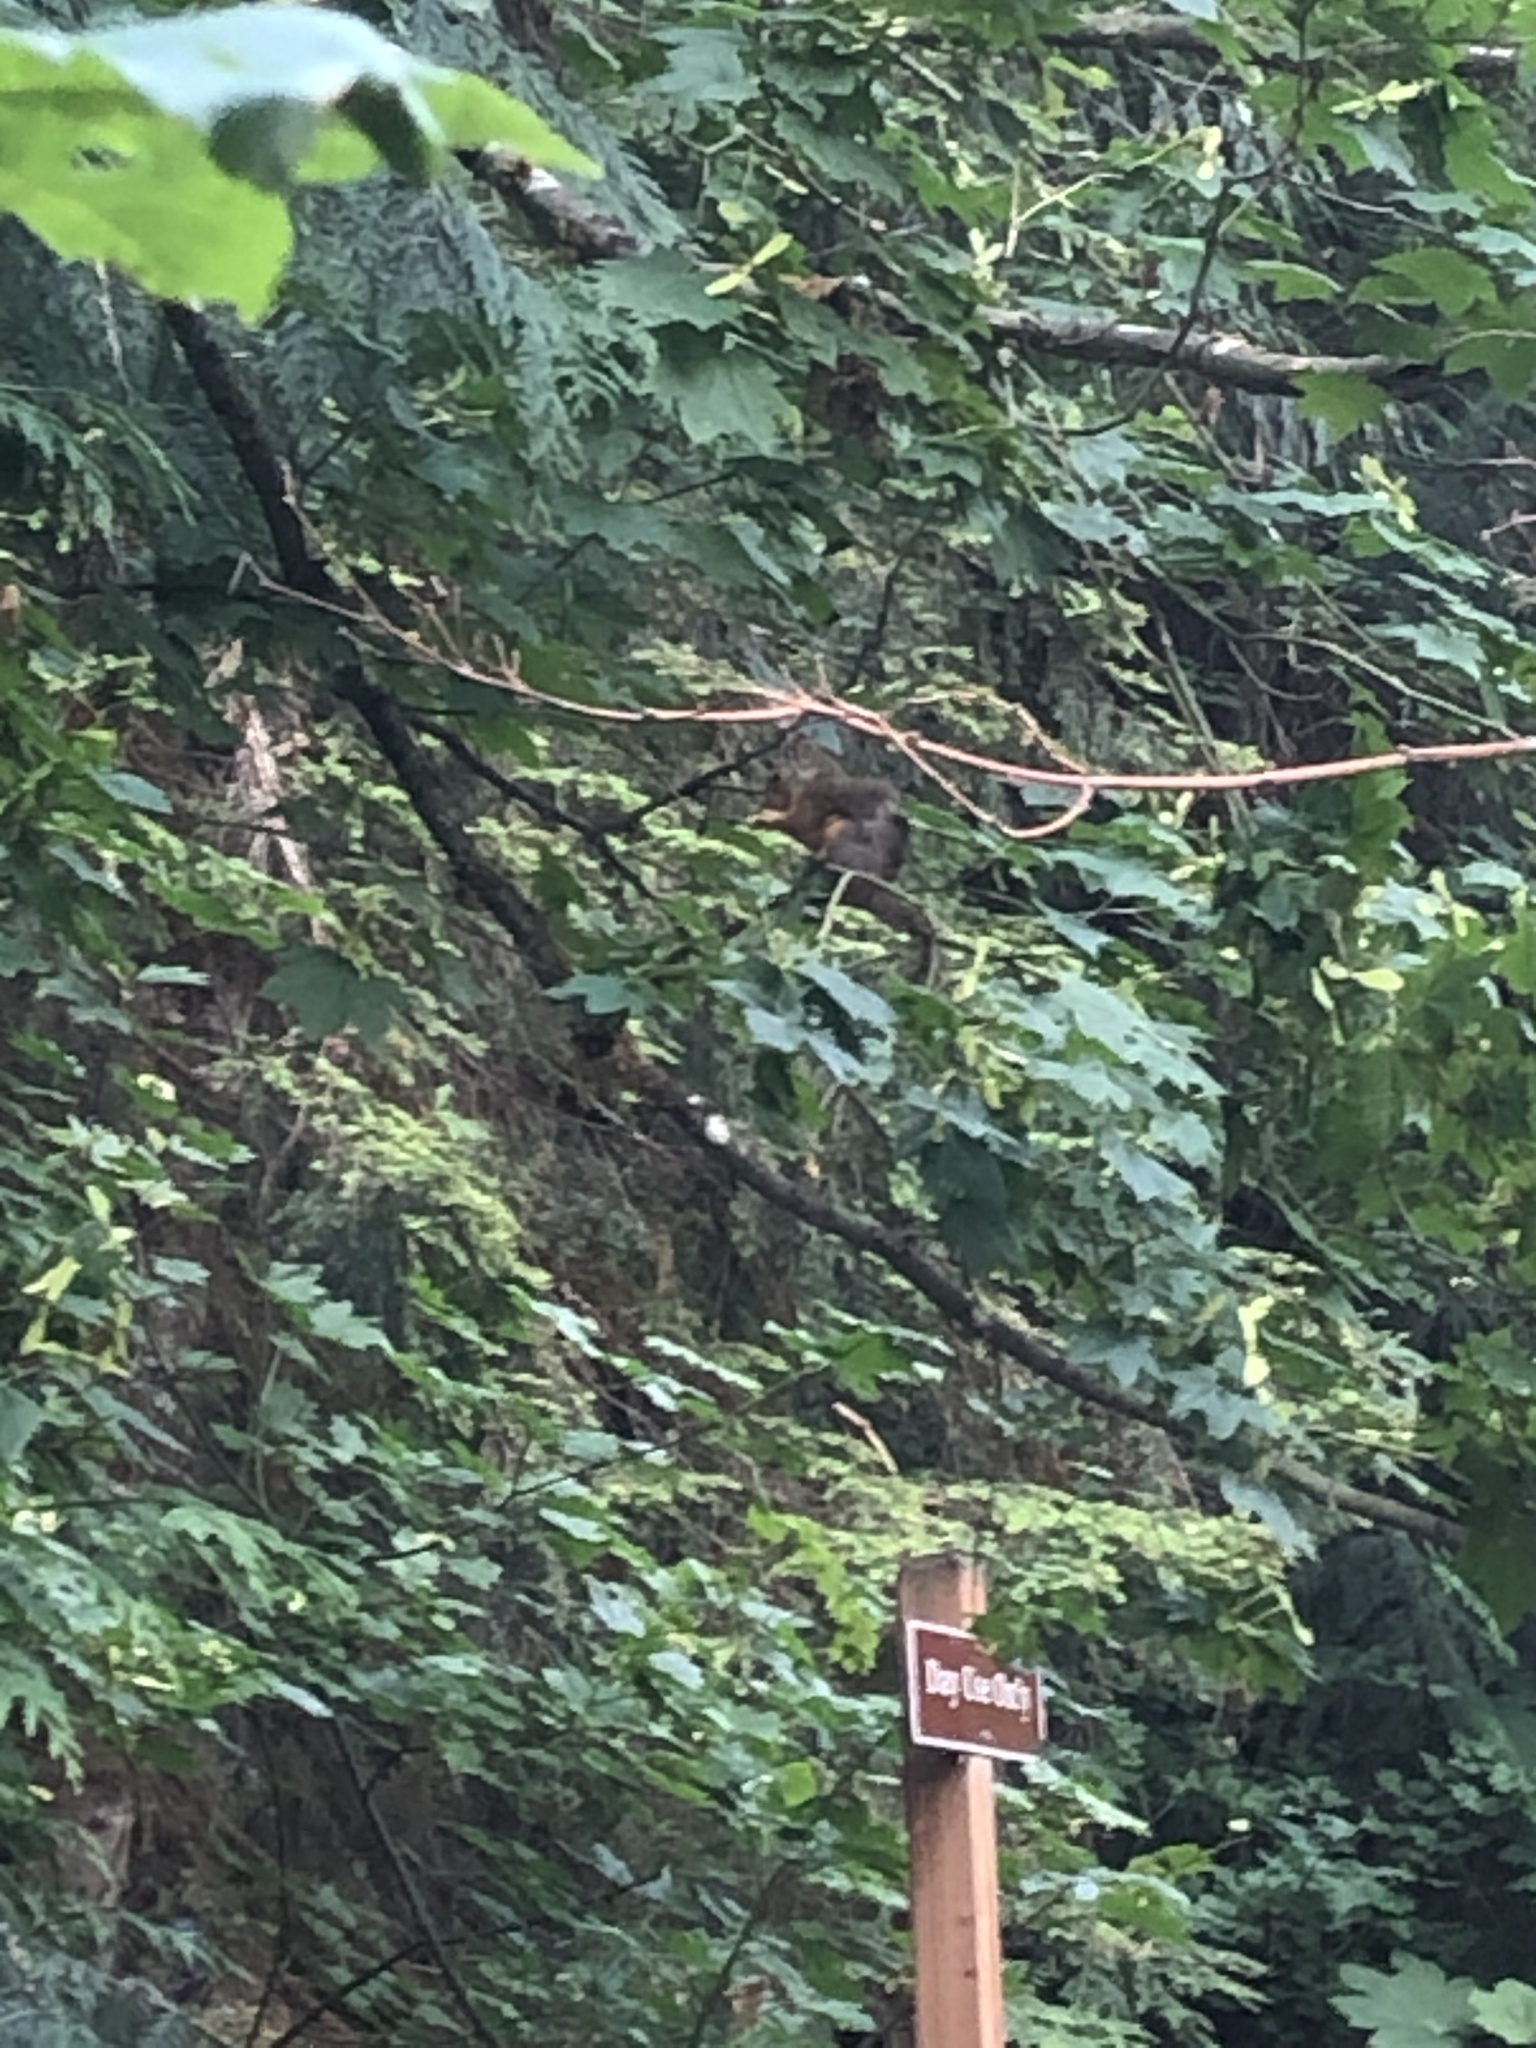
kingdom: Animalia
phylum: Chordata
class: Mammalia
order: Rodentia
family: Sciuridae
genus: Tamiasciurus
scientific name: Tamiasciurus douglasii
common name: Douglas's squirrel
